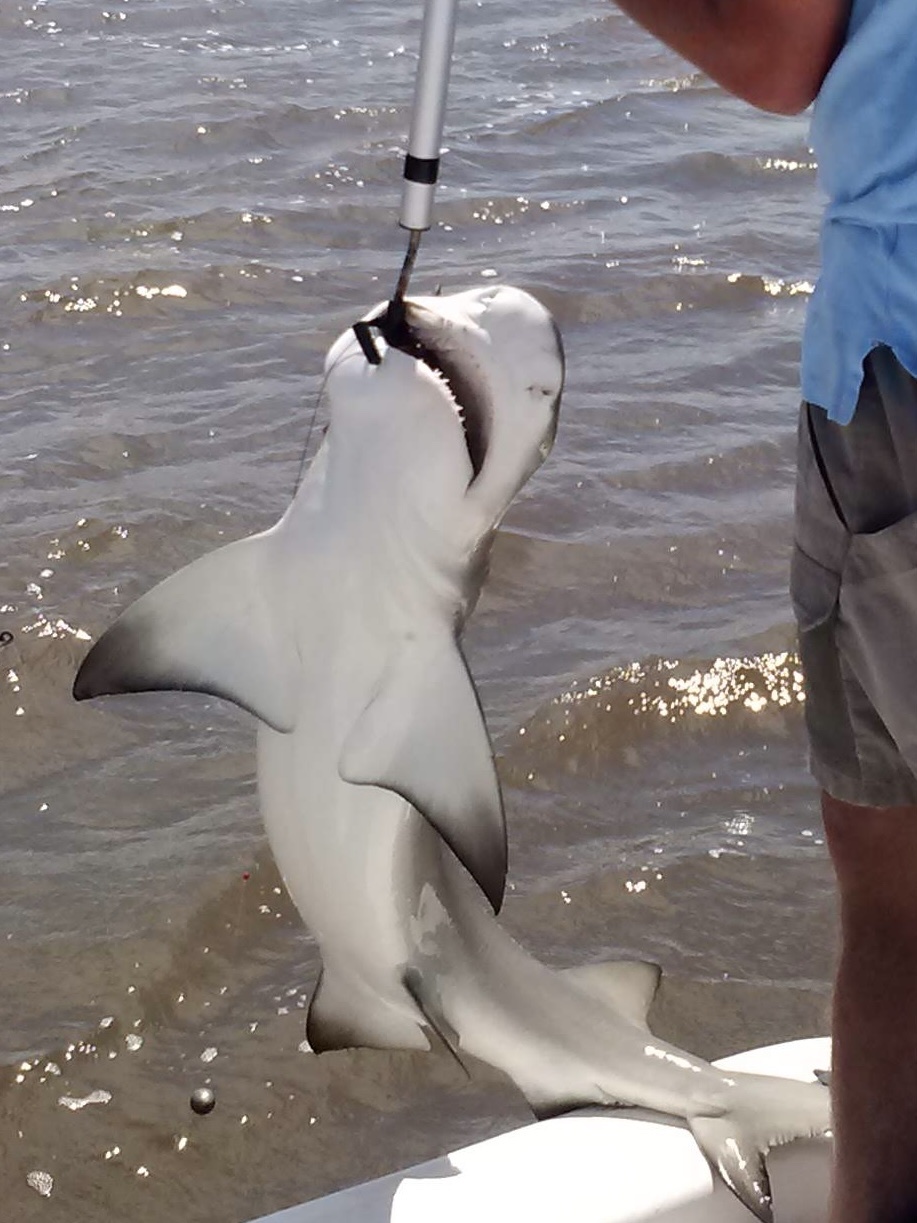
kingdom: Animalia
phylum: Chordata
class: Elasmobranchii
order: Carcharhiniformes
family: Carcharhinidae
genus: Carcharhinus
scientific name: Carcharhinus leucas
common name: Bull shark
